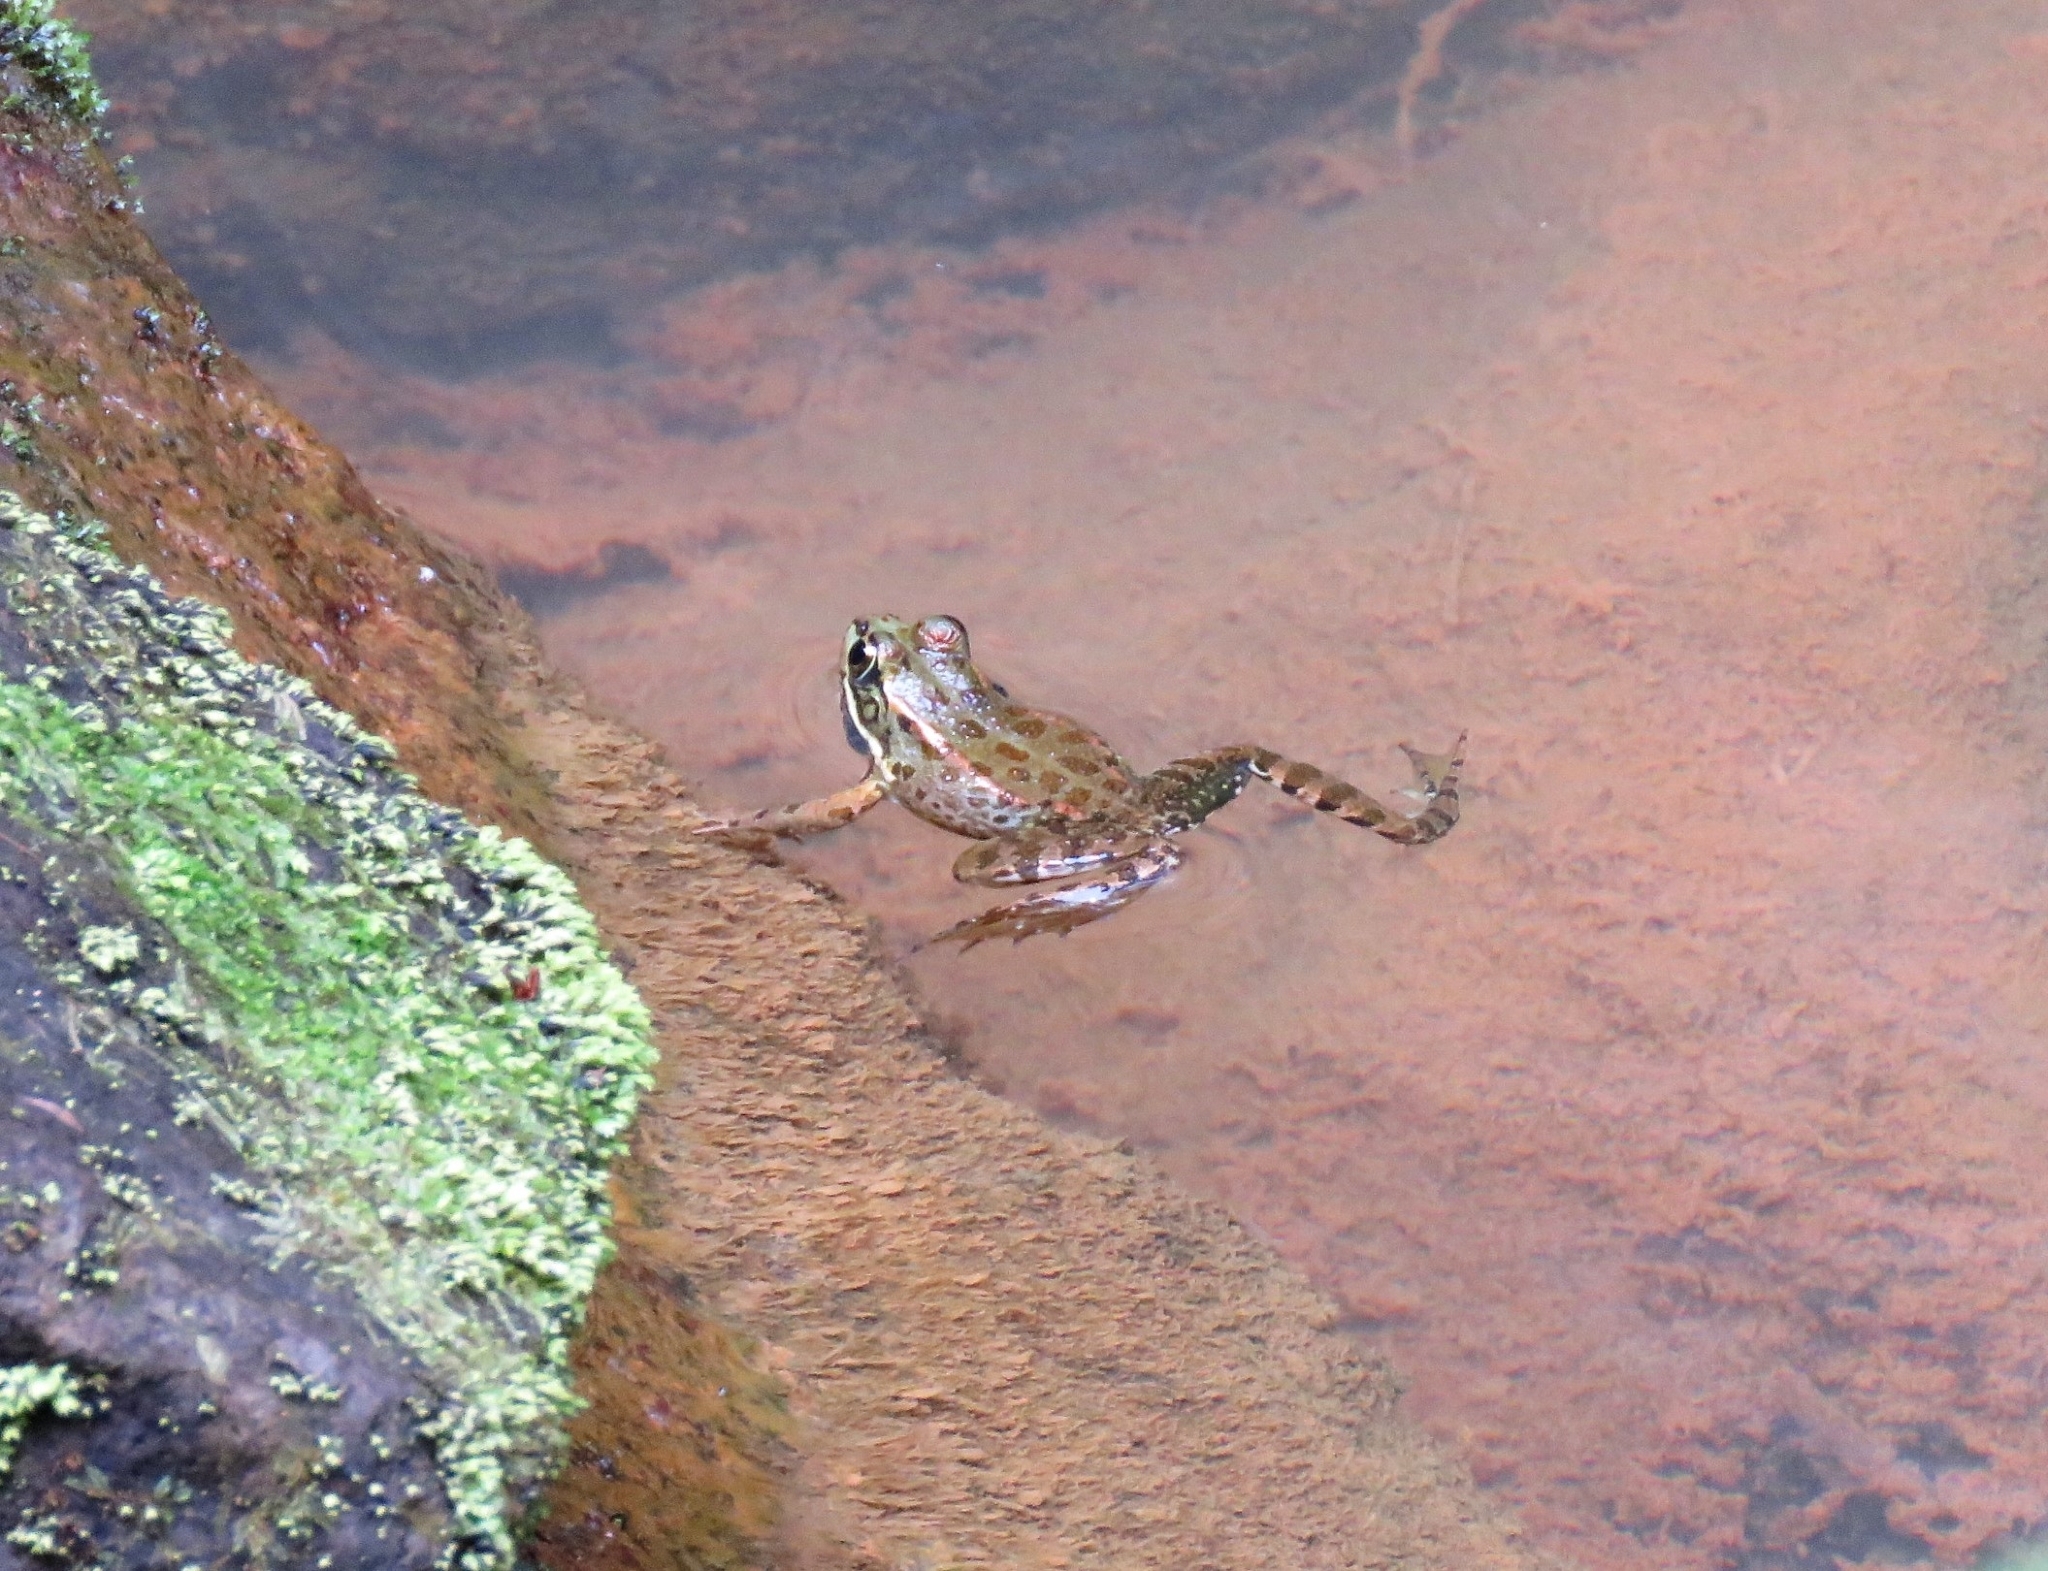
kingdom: Animalia
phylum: Chordata
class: Amphibia
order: Anura
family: Ranidae
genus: Pelophylax
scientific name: Pelophylax perezi
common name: Perez's frog
